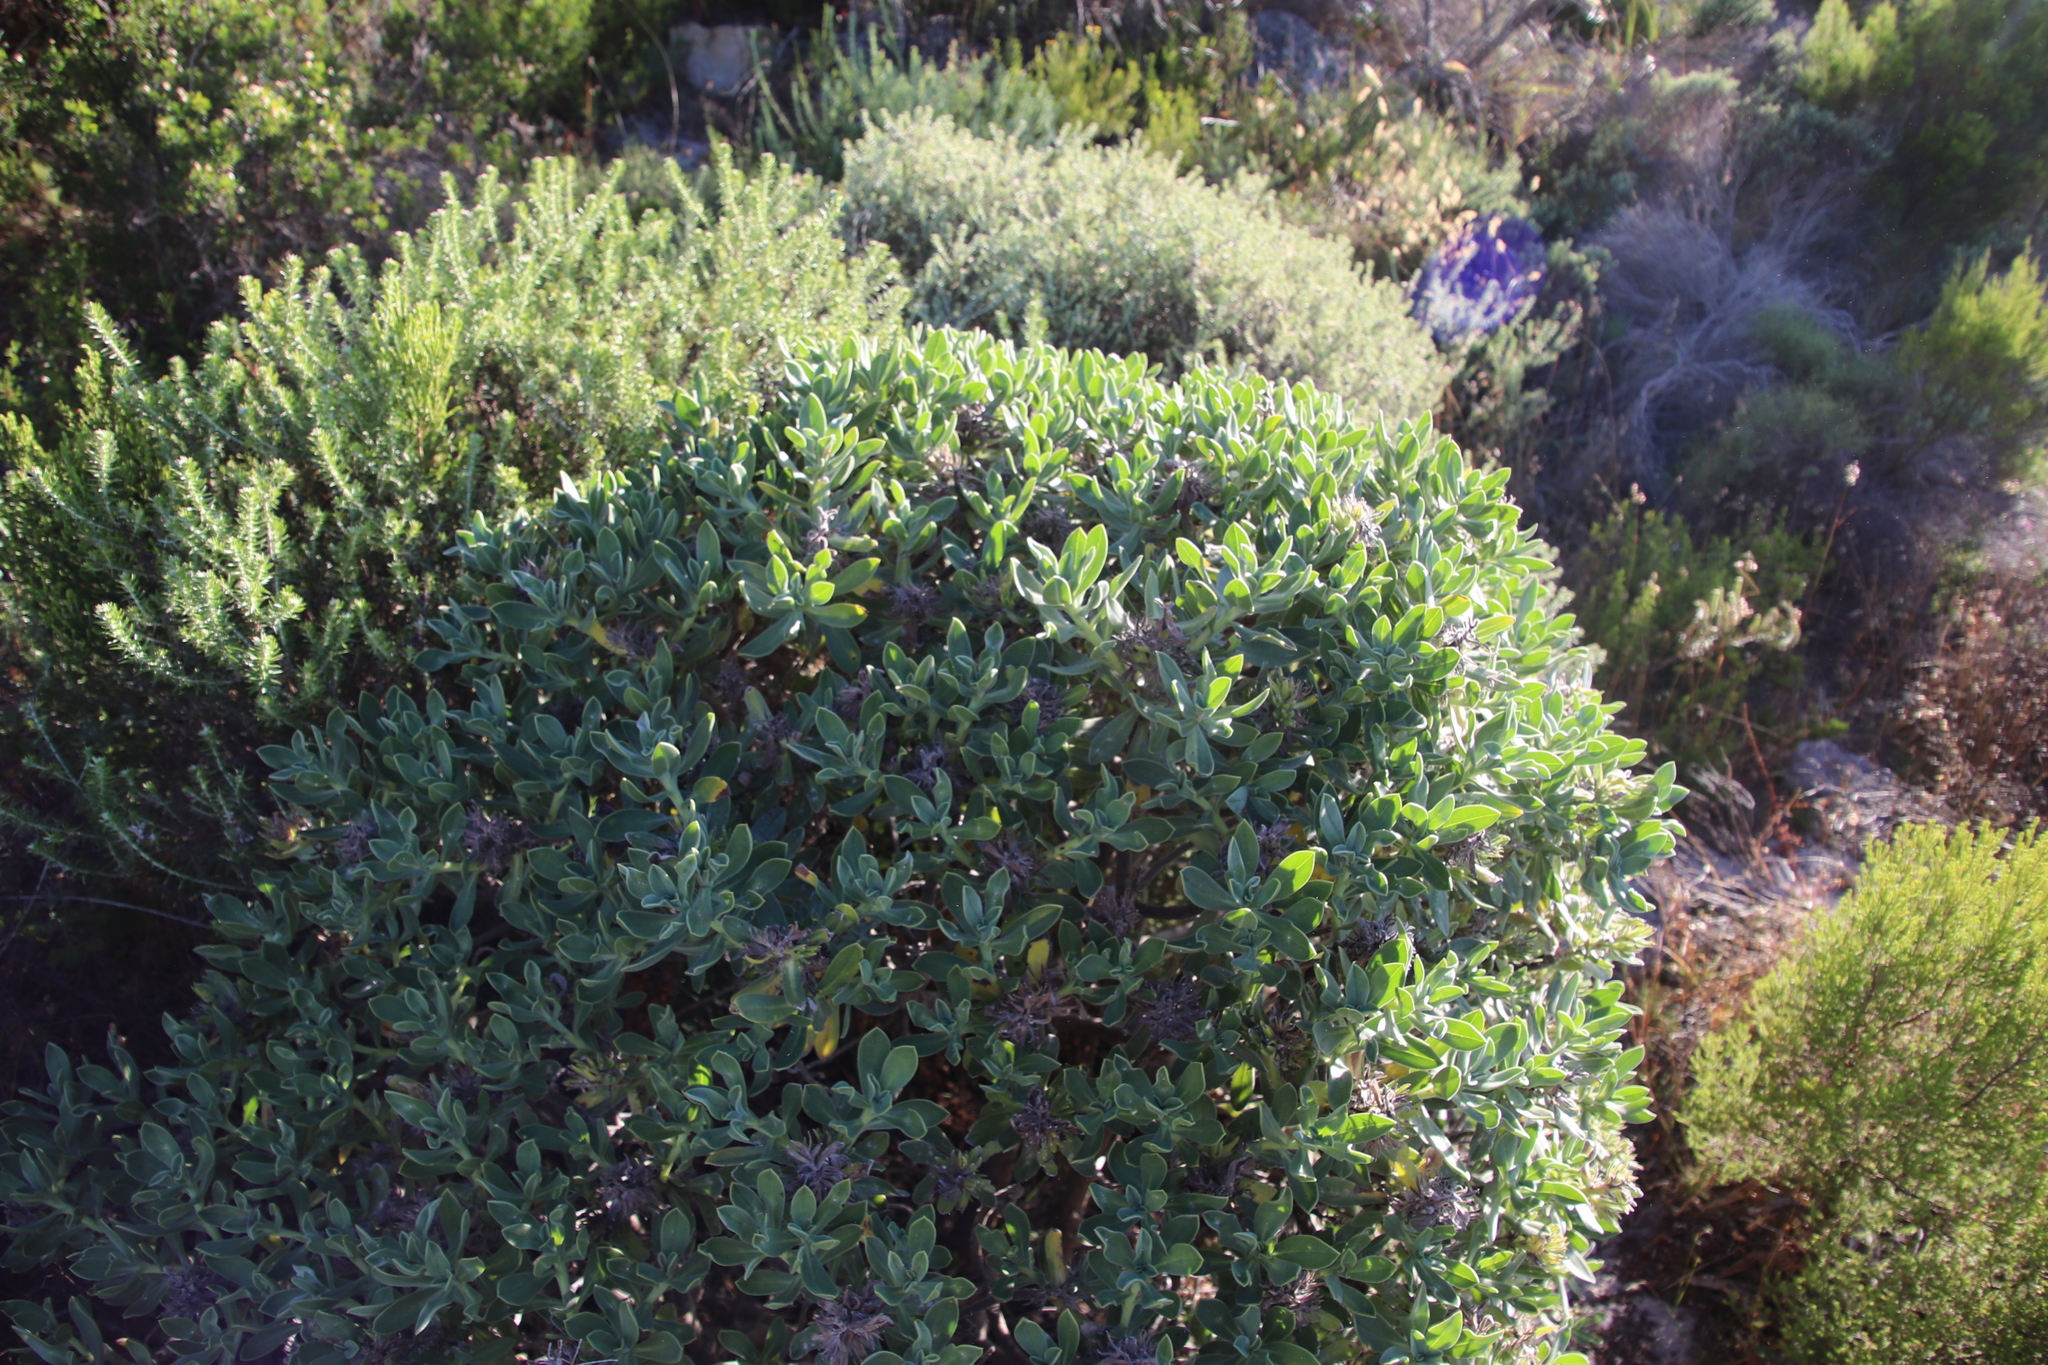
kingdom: Plantae
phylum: Tracheophyta
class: Magnoliopsida
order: Boraginales
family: Boraginaceae
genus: Lobostemon
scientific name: Lobostemon montanus
